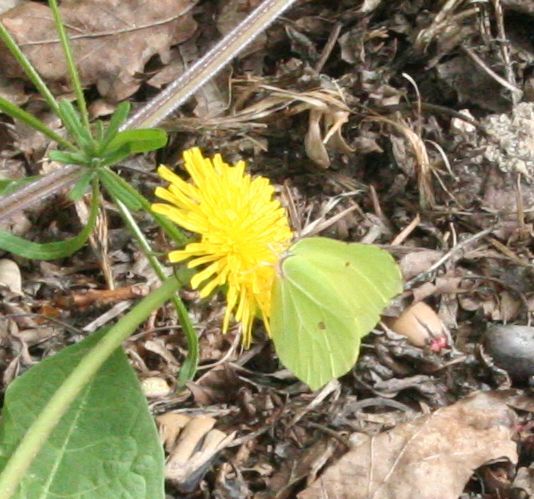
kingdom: Animalia
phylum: Arthropoda
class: Insecta
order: Lepidoptera
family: Pieridae
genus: Gonepteryx
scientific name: Gonepteryx rhamni
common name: Brimstone
